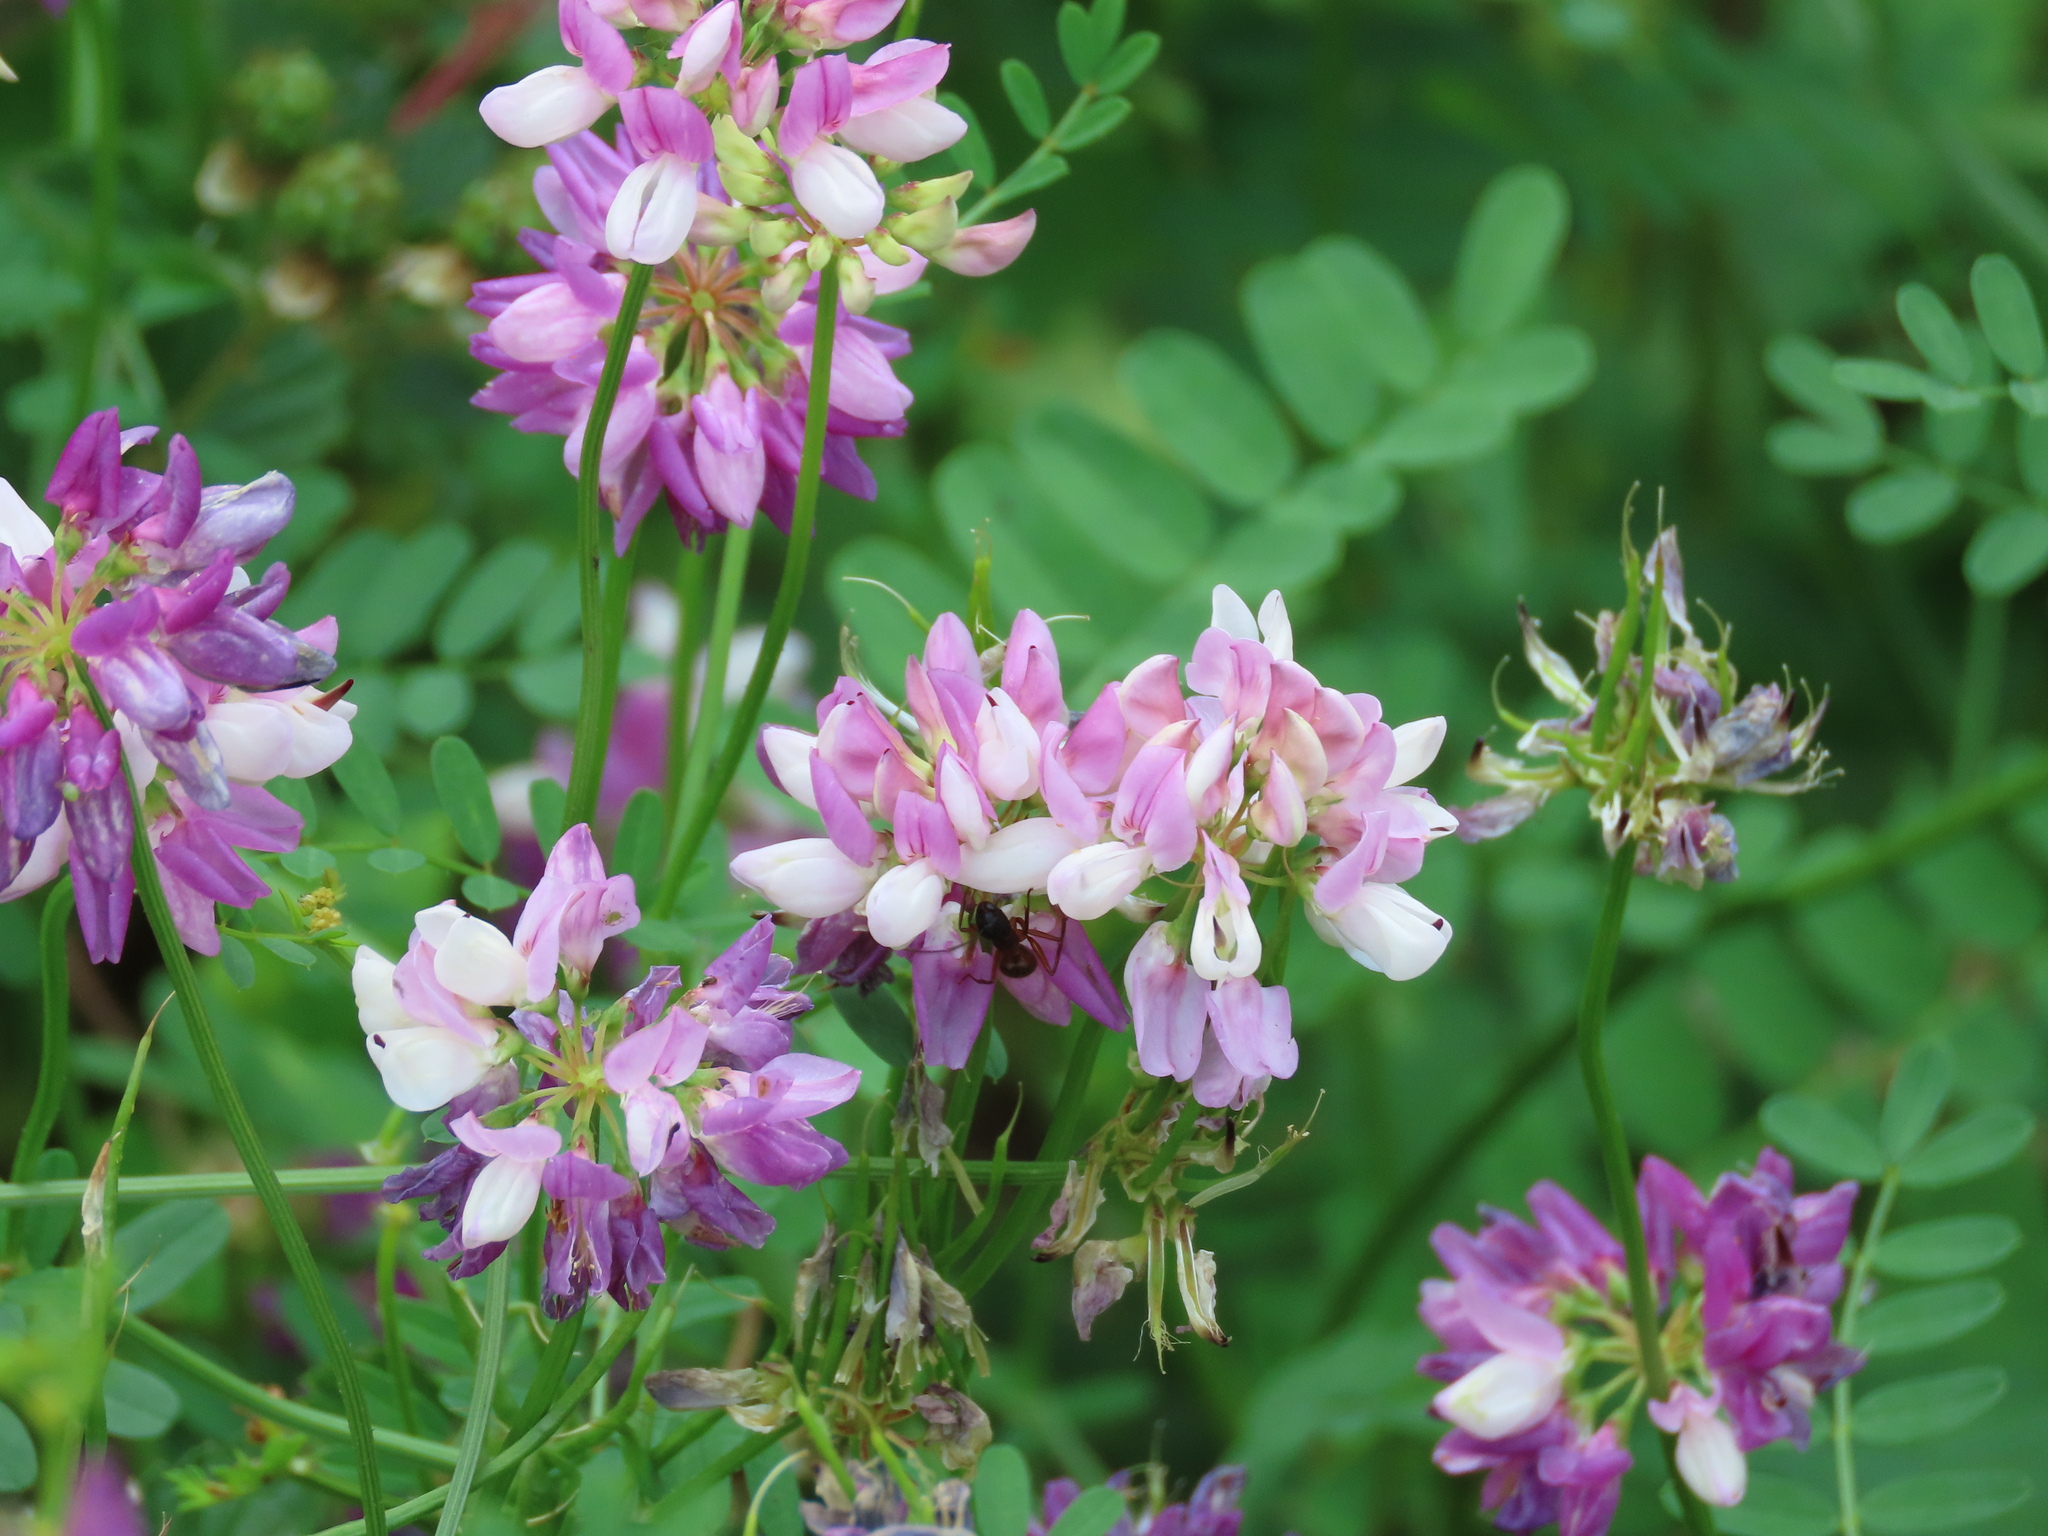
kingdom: Plantae
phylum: Tracheophyta
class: Magnoliopsida
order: Fabales
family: Fabaceae
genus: Coronilla
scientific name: Coronilla varia
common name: Crownvetch
